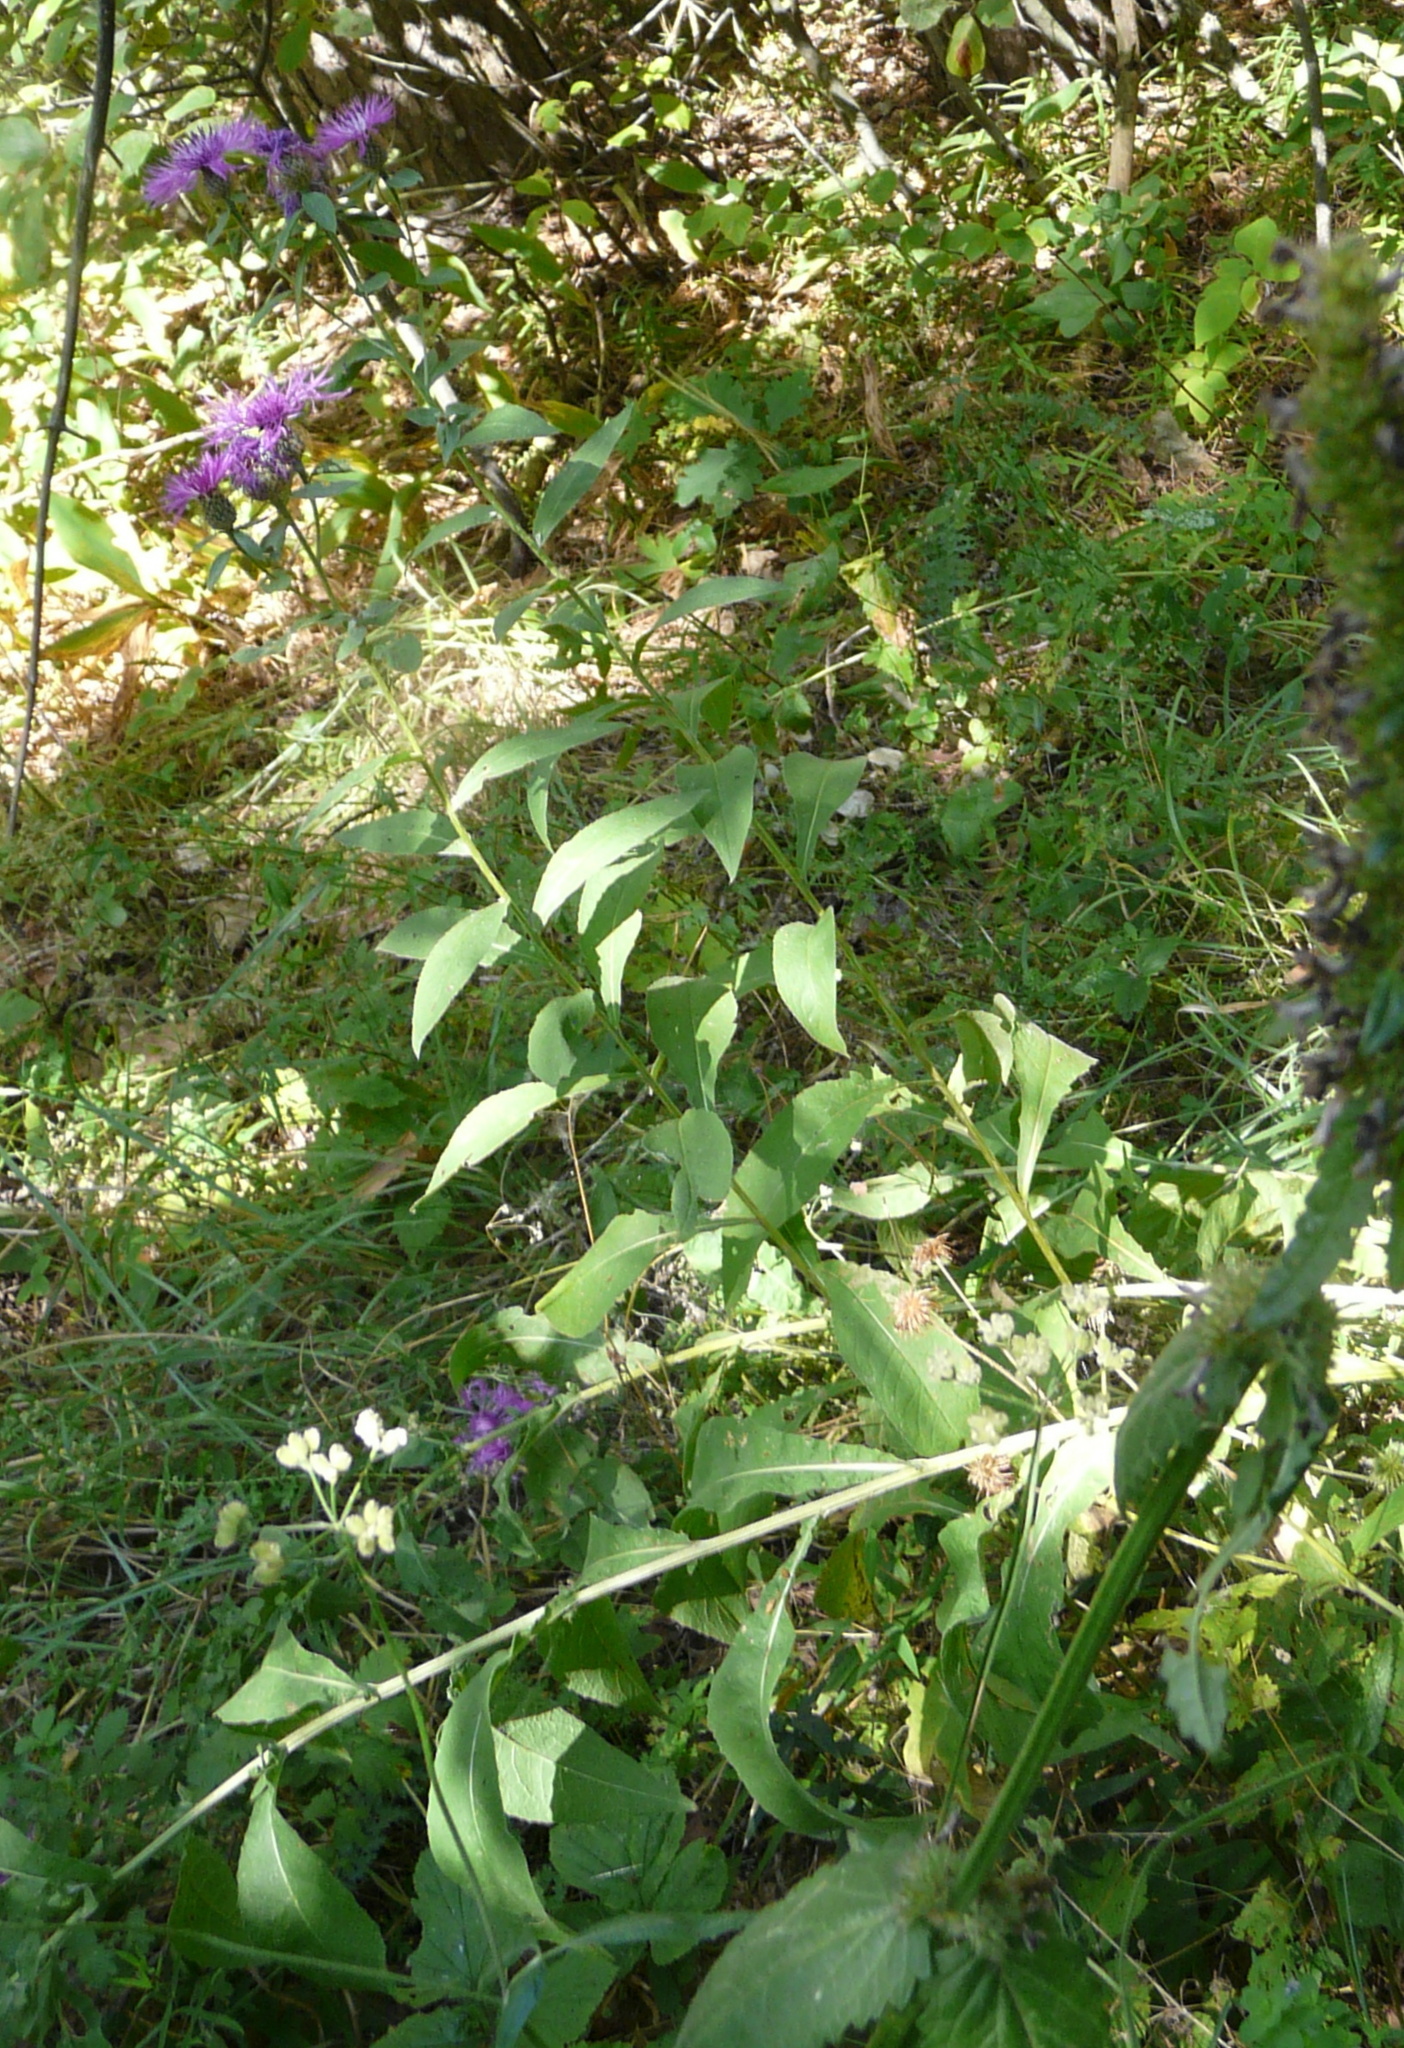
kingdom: Plantae
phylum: Tracheophyta
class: Magnoliopsida
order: Asterales
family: Asteraceae
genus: Centaurea
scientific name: Centaurea pseudophrygia
